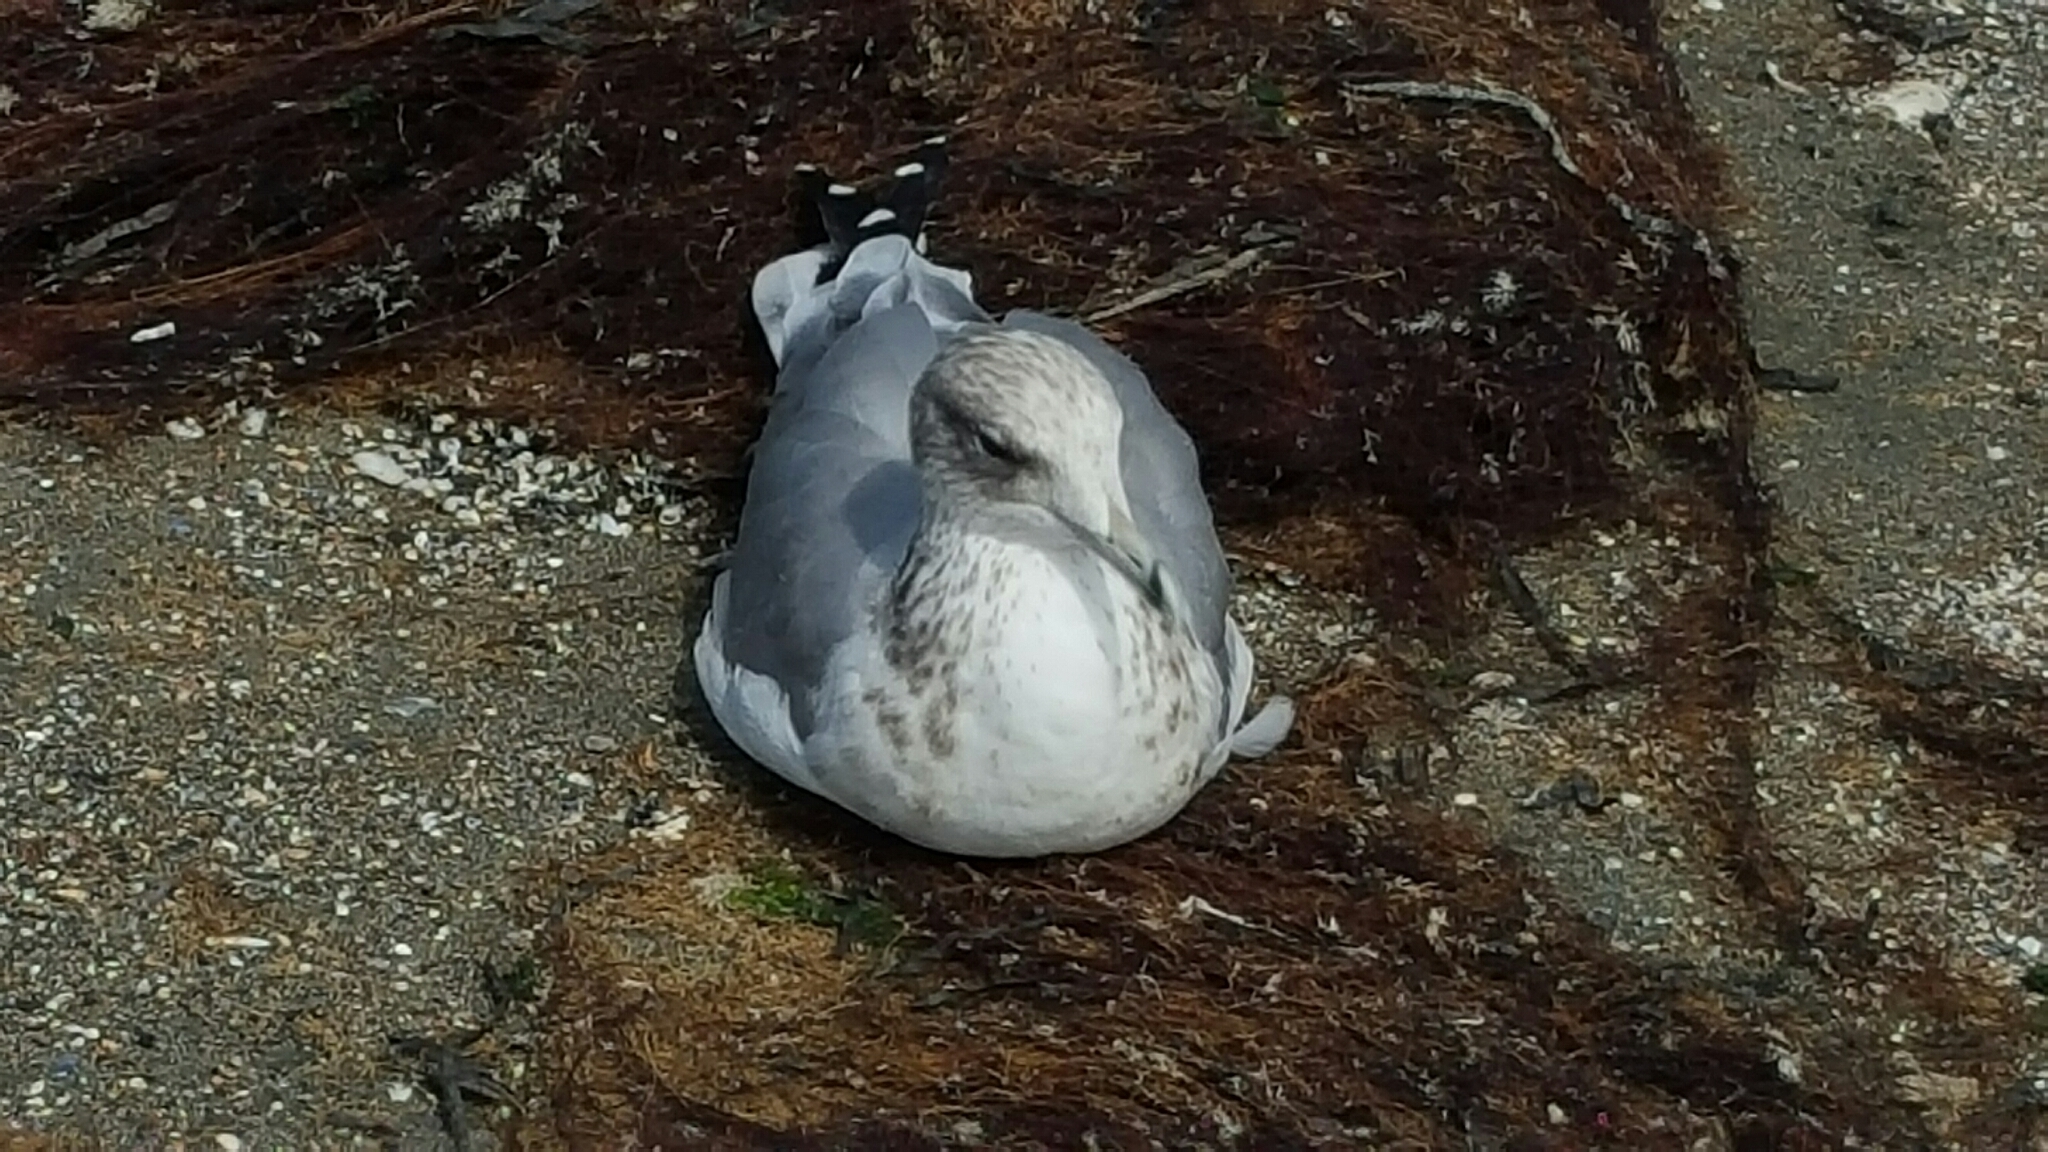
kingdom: Animalia
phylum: Chordata
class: Aves
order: Charadriiformes
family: Laridae
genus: Larus
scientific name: Larus californicus
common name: California gull
